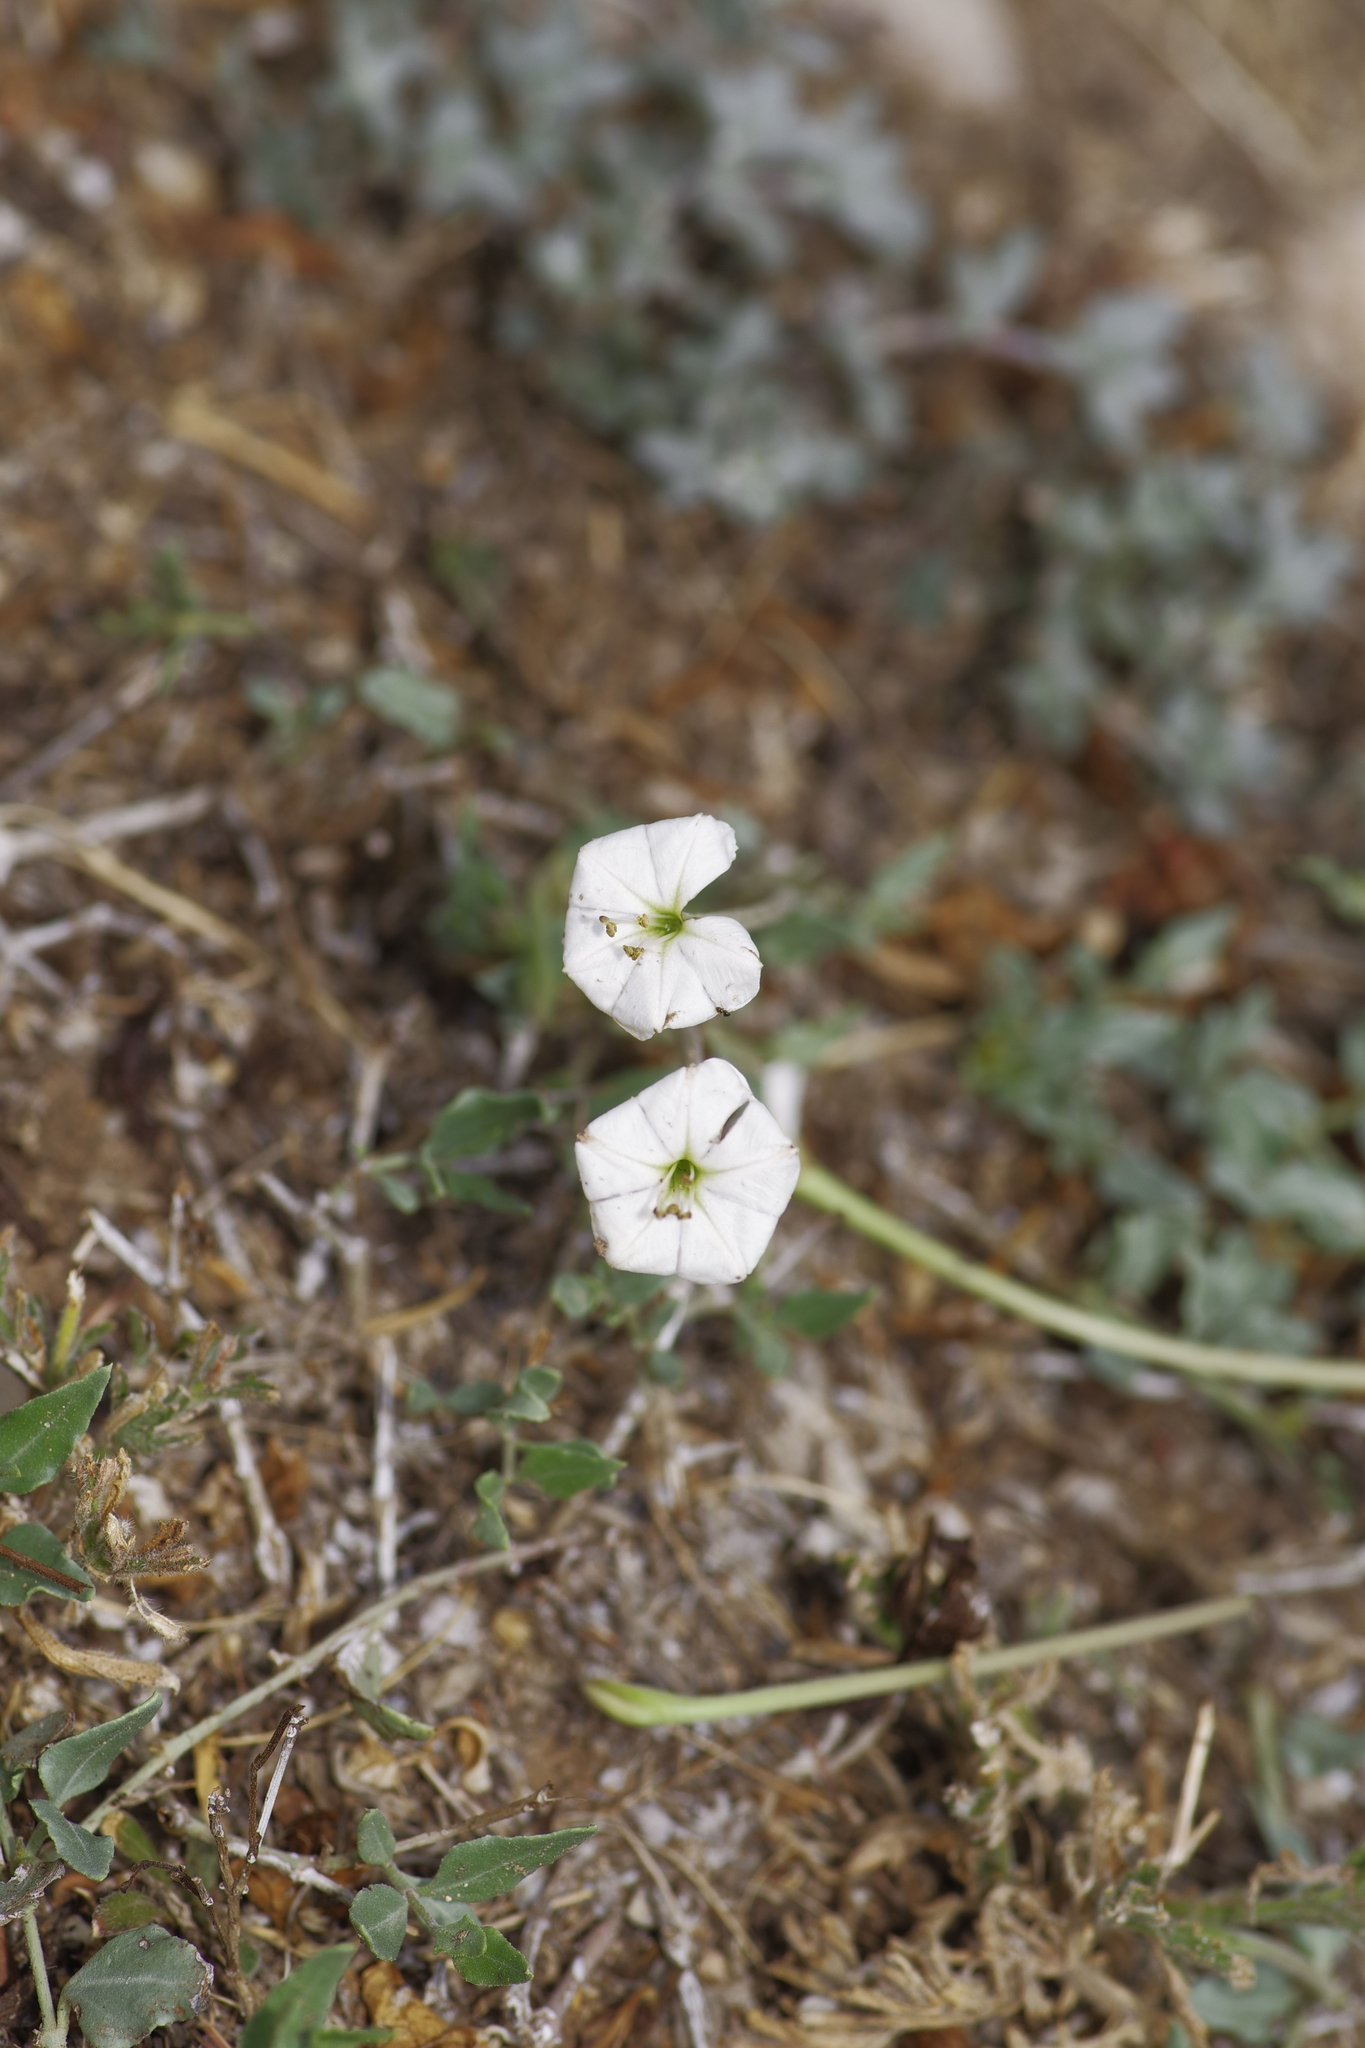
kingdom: Plantae
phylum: Tracheophyta
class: Magnoliopsida
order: Caryophyllales
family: Nyctaginaceae
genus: Acleisanthes
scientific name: Acleisanthes longiflora
